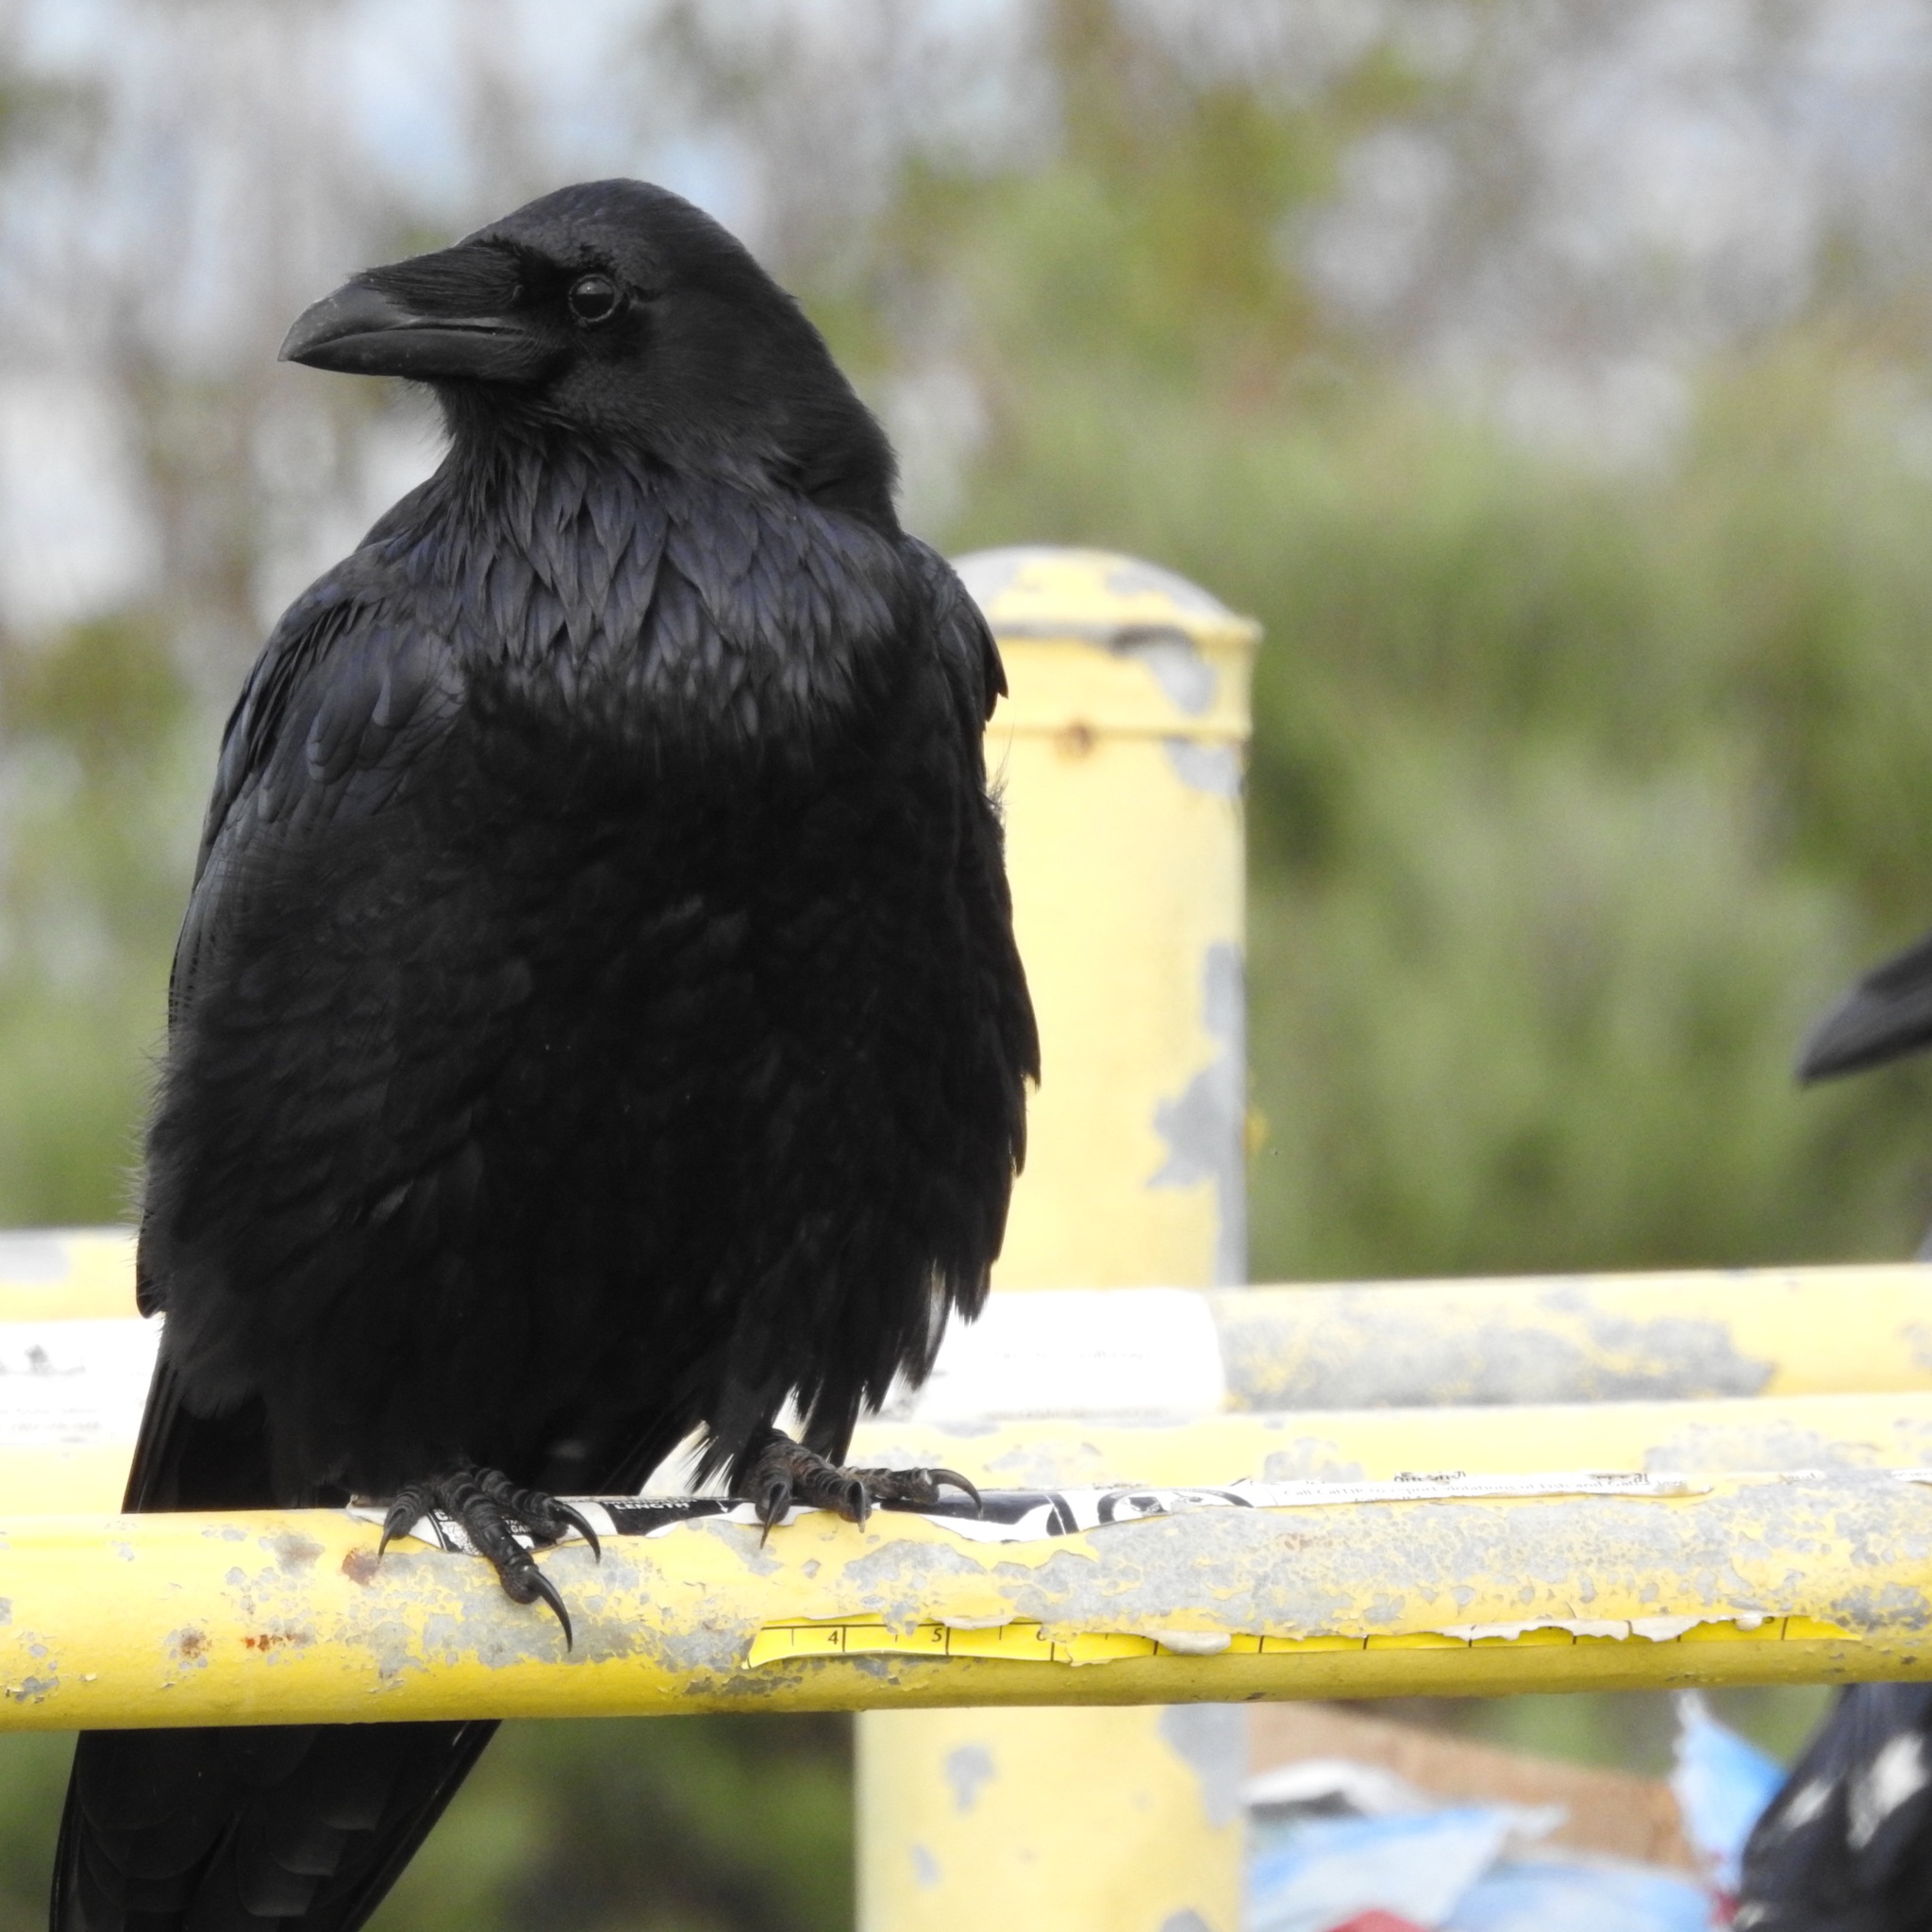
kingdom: Animalia
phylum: Chordata
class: Aves
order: Passeriformes
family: Corvidae
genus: Corvus
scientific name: Corvus corax
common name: Common raven
